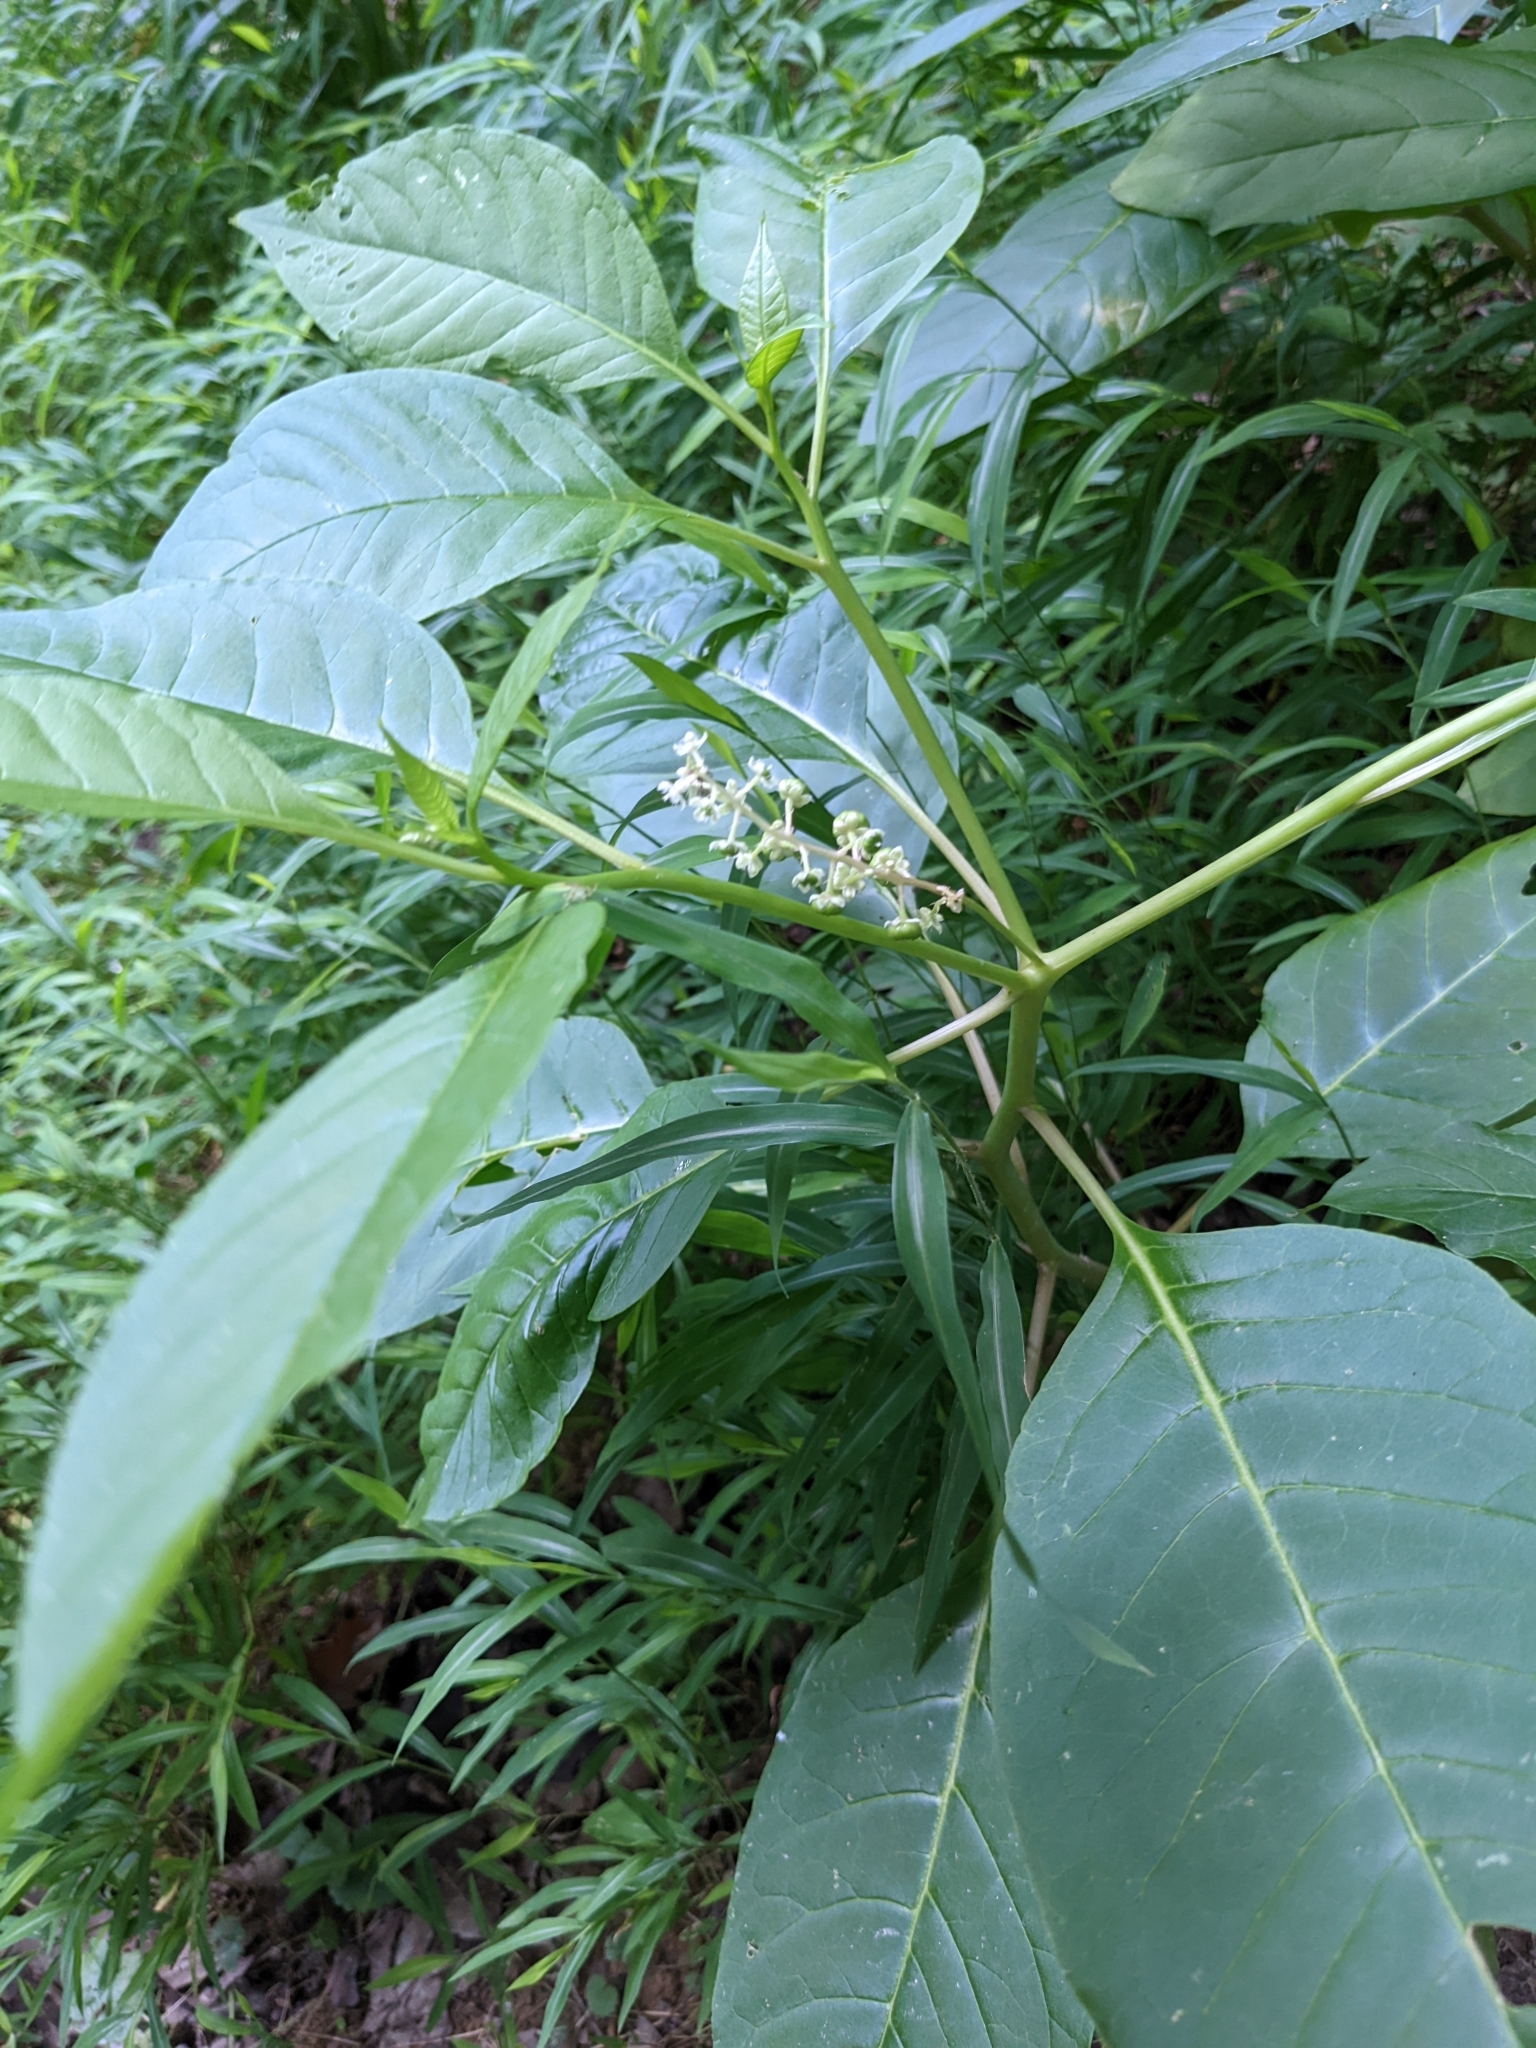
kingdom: Plantae
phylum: Tracheophyta
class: Magnoliopsida
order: Caryophyllales
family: Phytolaccaceae
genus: Phytolacca
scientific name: Phytolacca americana
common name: American pokeweed
